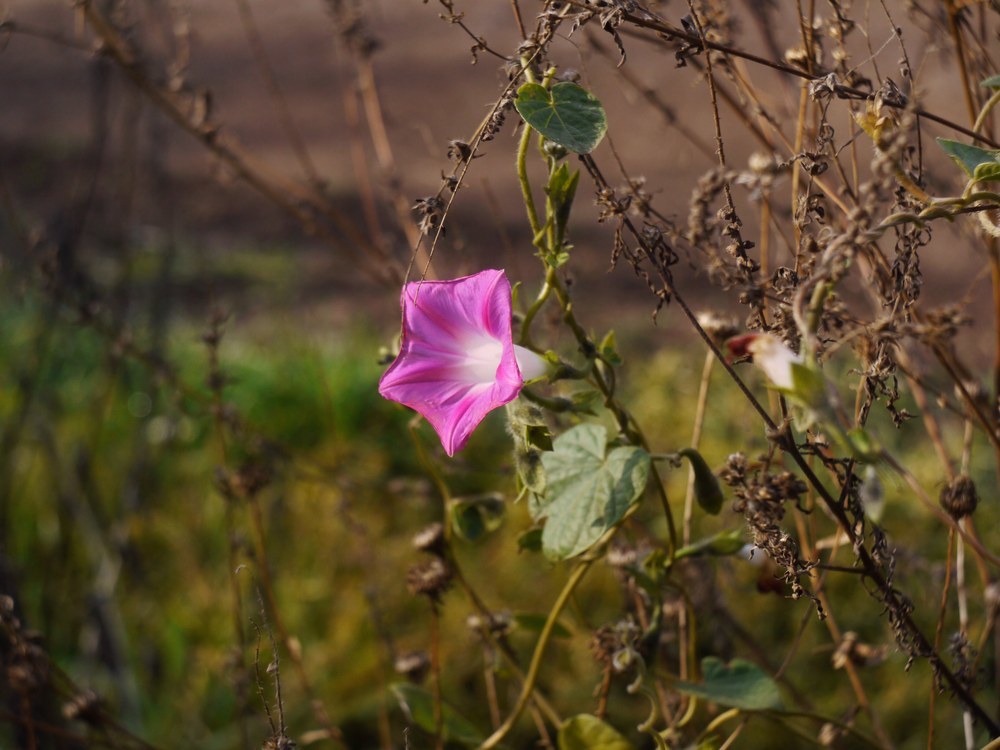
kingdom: Plantae
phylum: Tracheophyta
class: Magnoliopsida
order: Solanales
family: Convolvulaceae
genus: Ipomoea
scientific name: Ipomoea purpurea
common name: Common morning-glory
